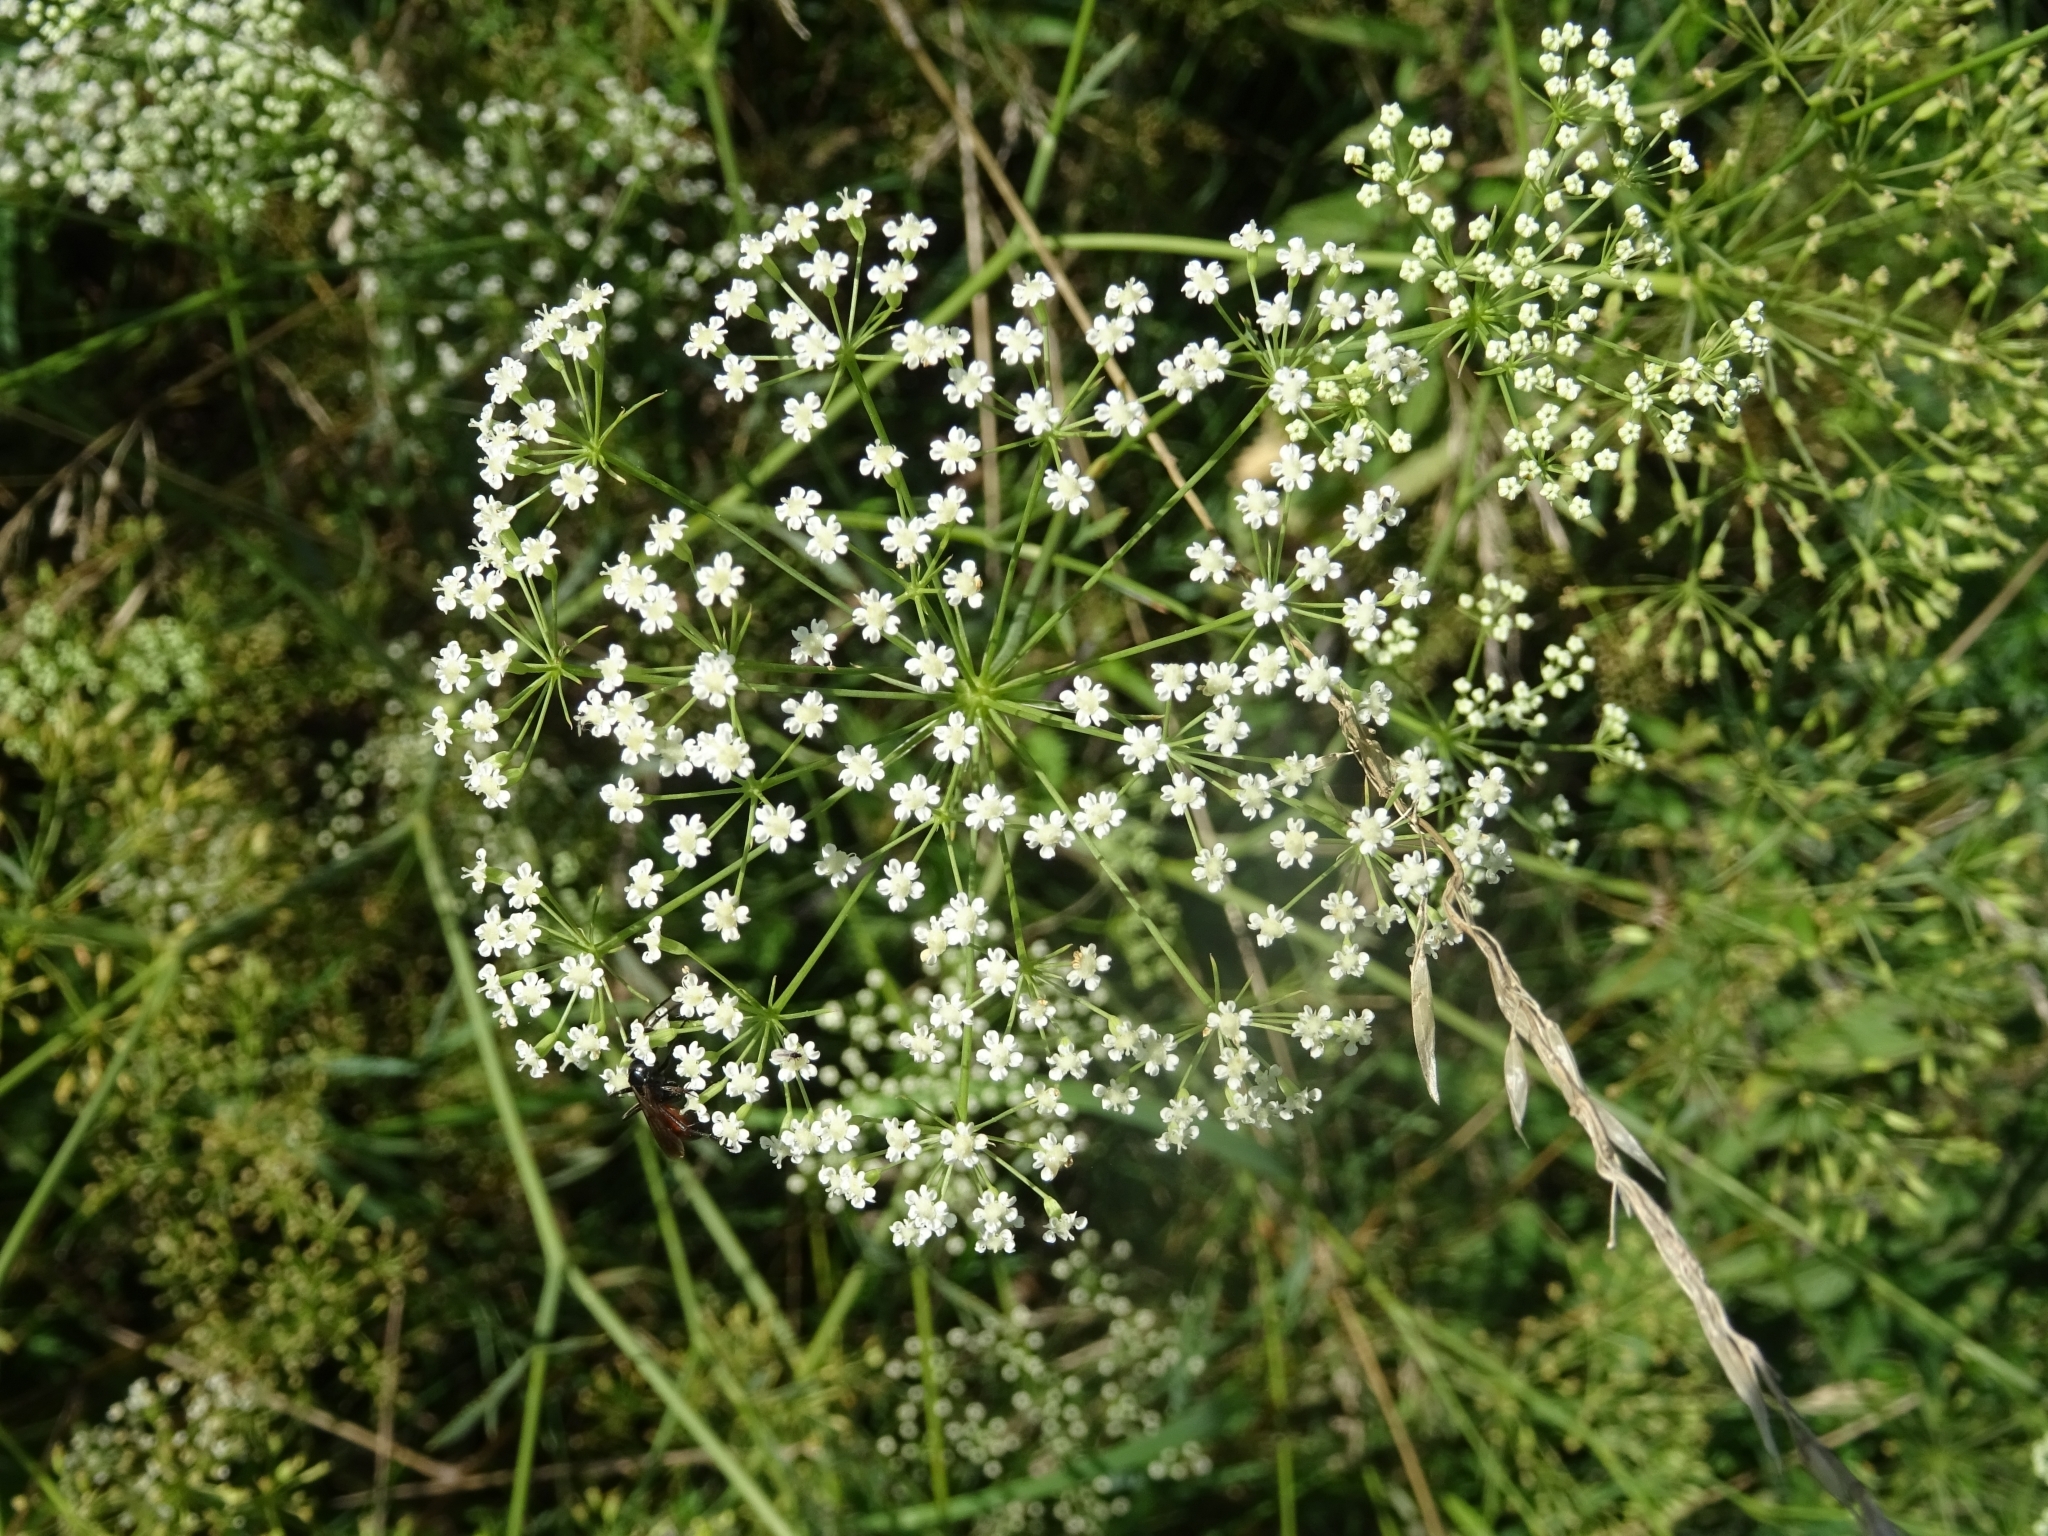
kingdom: Plantae
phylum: Tracheophyta
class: Magnoliopsida
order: Apiales
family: Apiaceae
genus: Falcaria
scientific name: Falcaria vulgaris
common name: Longleaf
